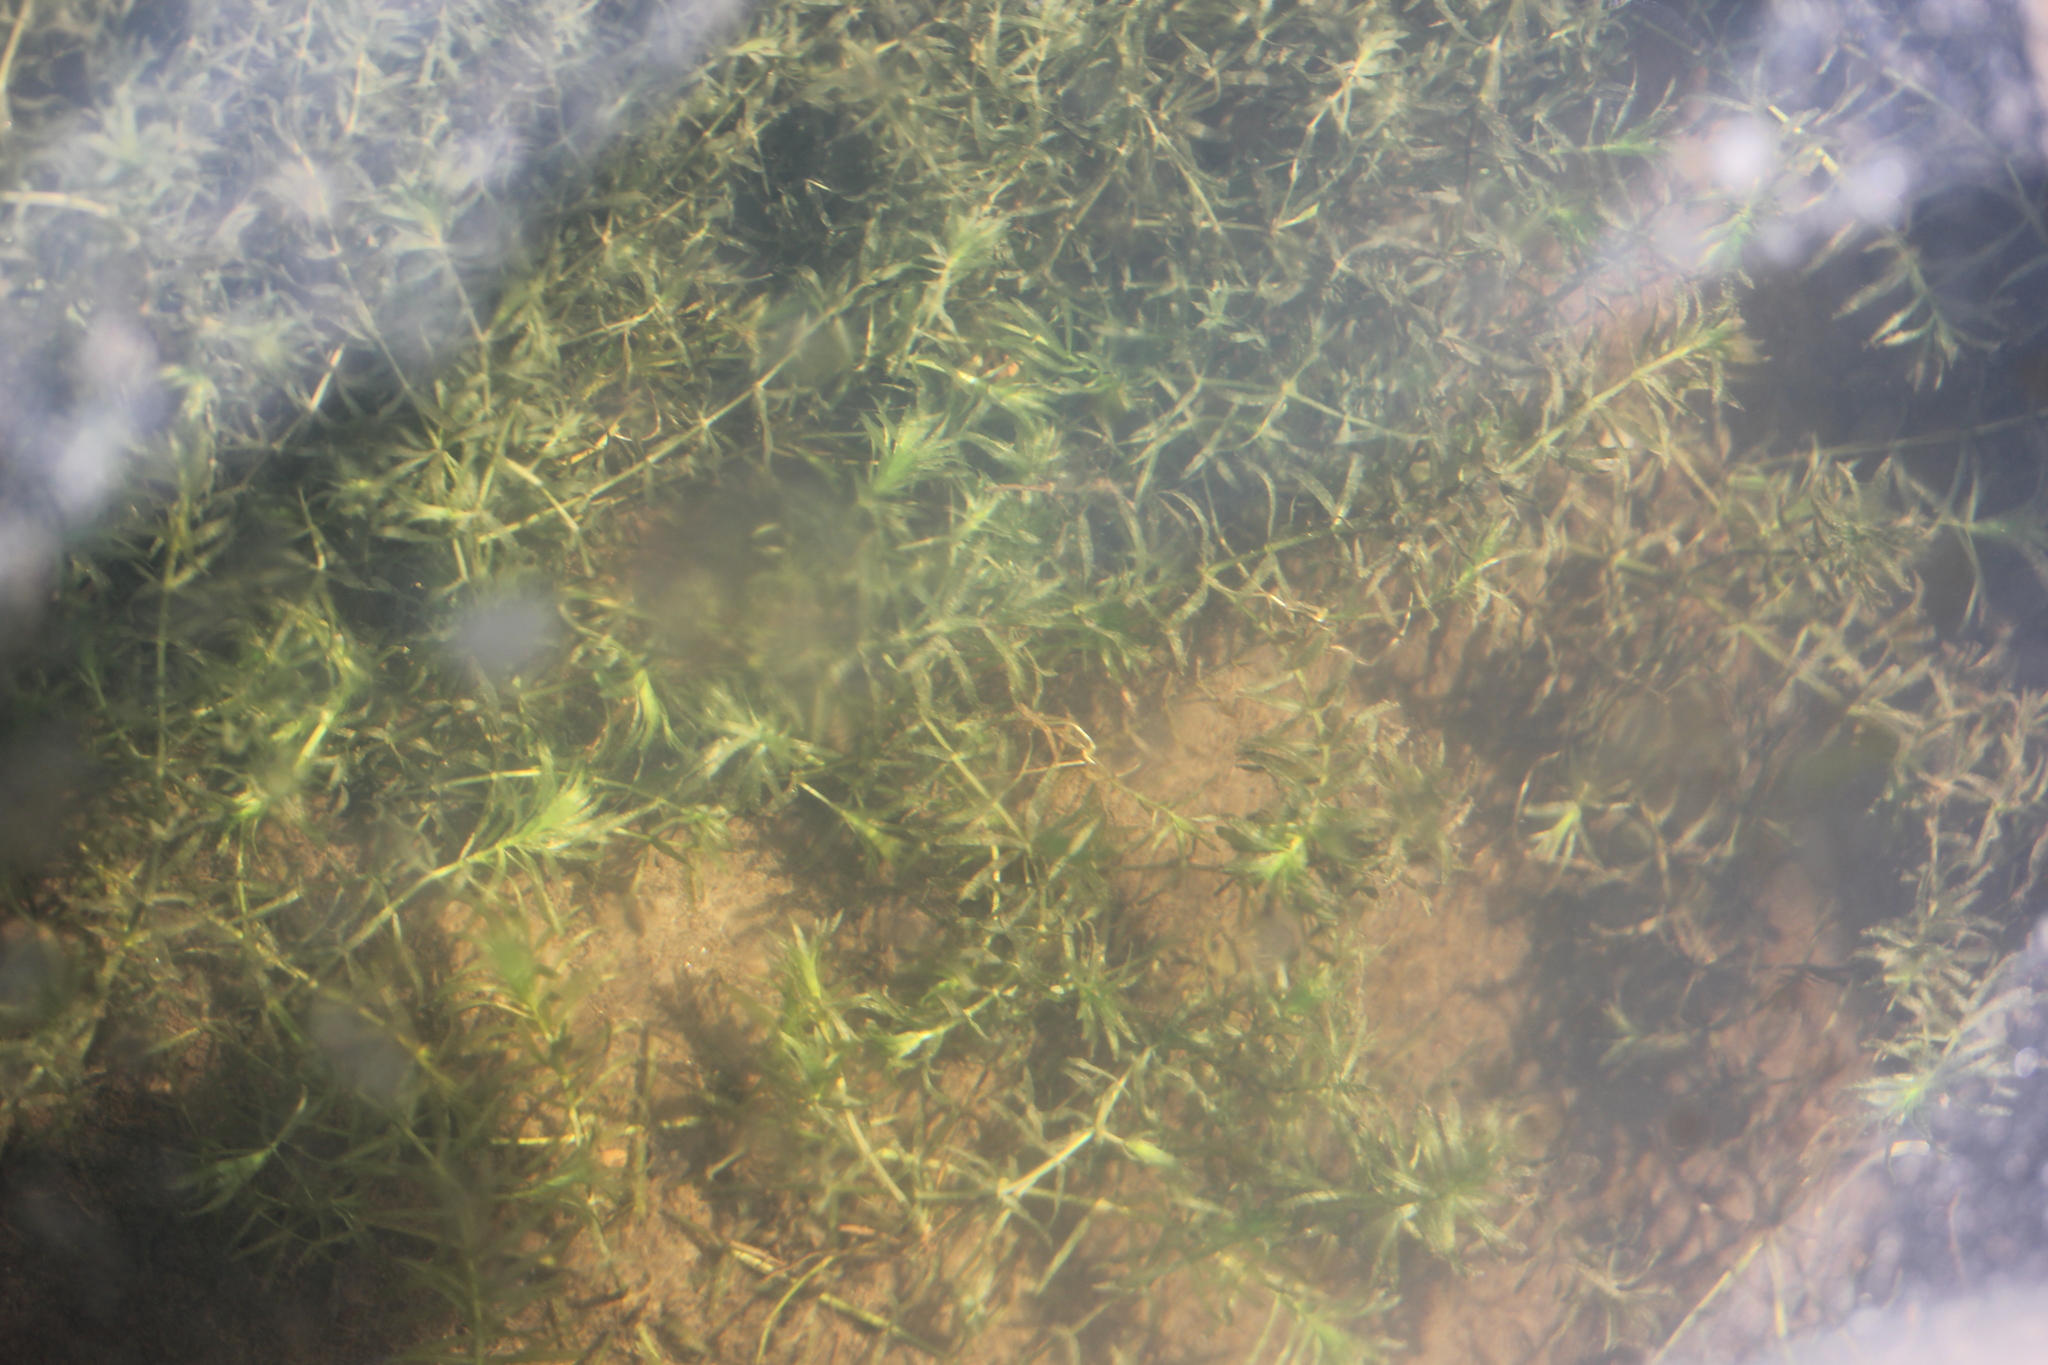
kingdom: Plantae
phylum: Tracheophyta
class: Liliopsida
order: Alismatales
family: Hydrocharitaceae
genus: Hydrilla
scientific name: Hydrilla verticillata
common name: Florida-elodea
